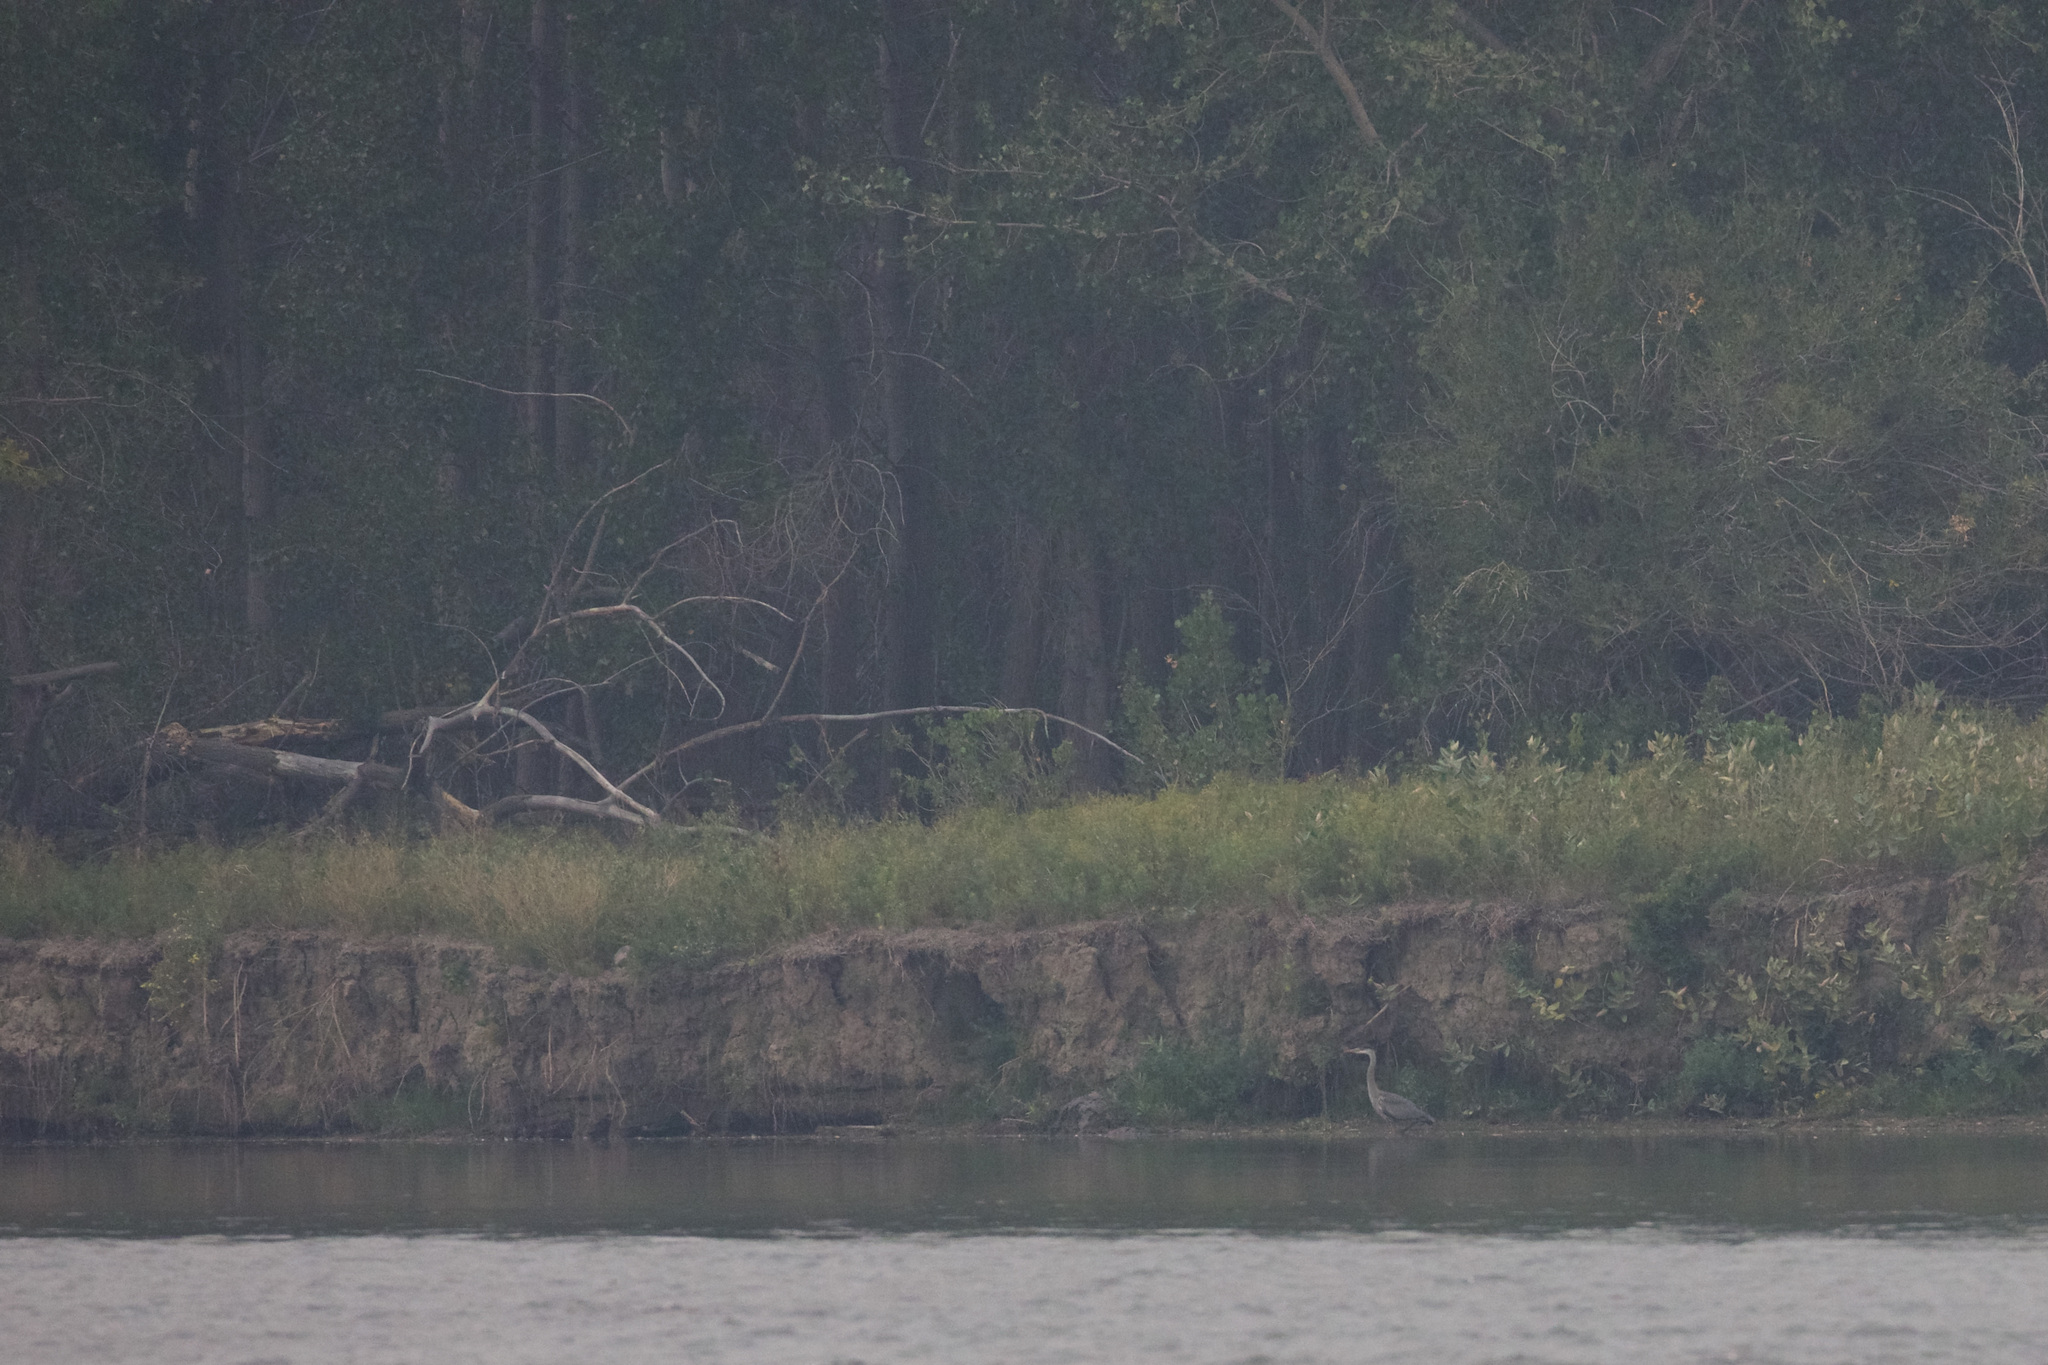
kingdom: Animalia
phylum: Chordata
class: Aves
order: Pelecaniformes
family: Ardeidae
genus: Ardea
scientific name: Ardea herodias
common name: Great blue heron
